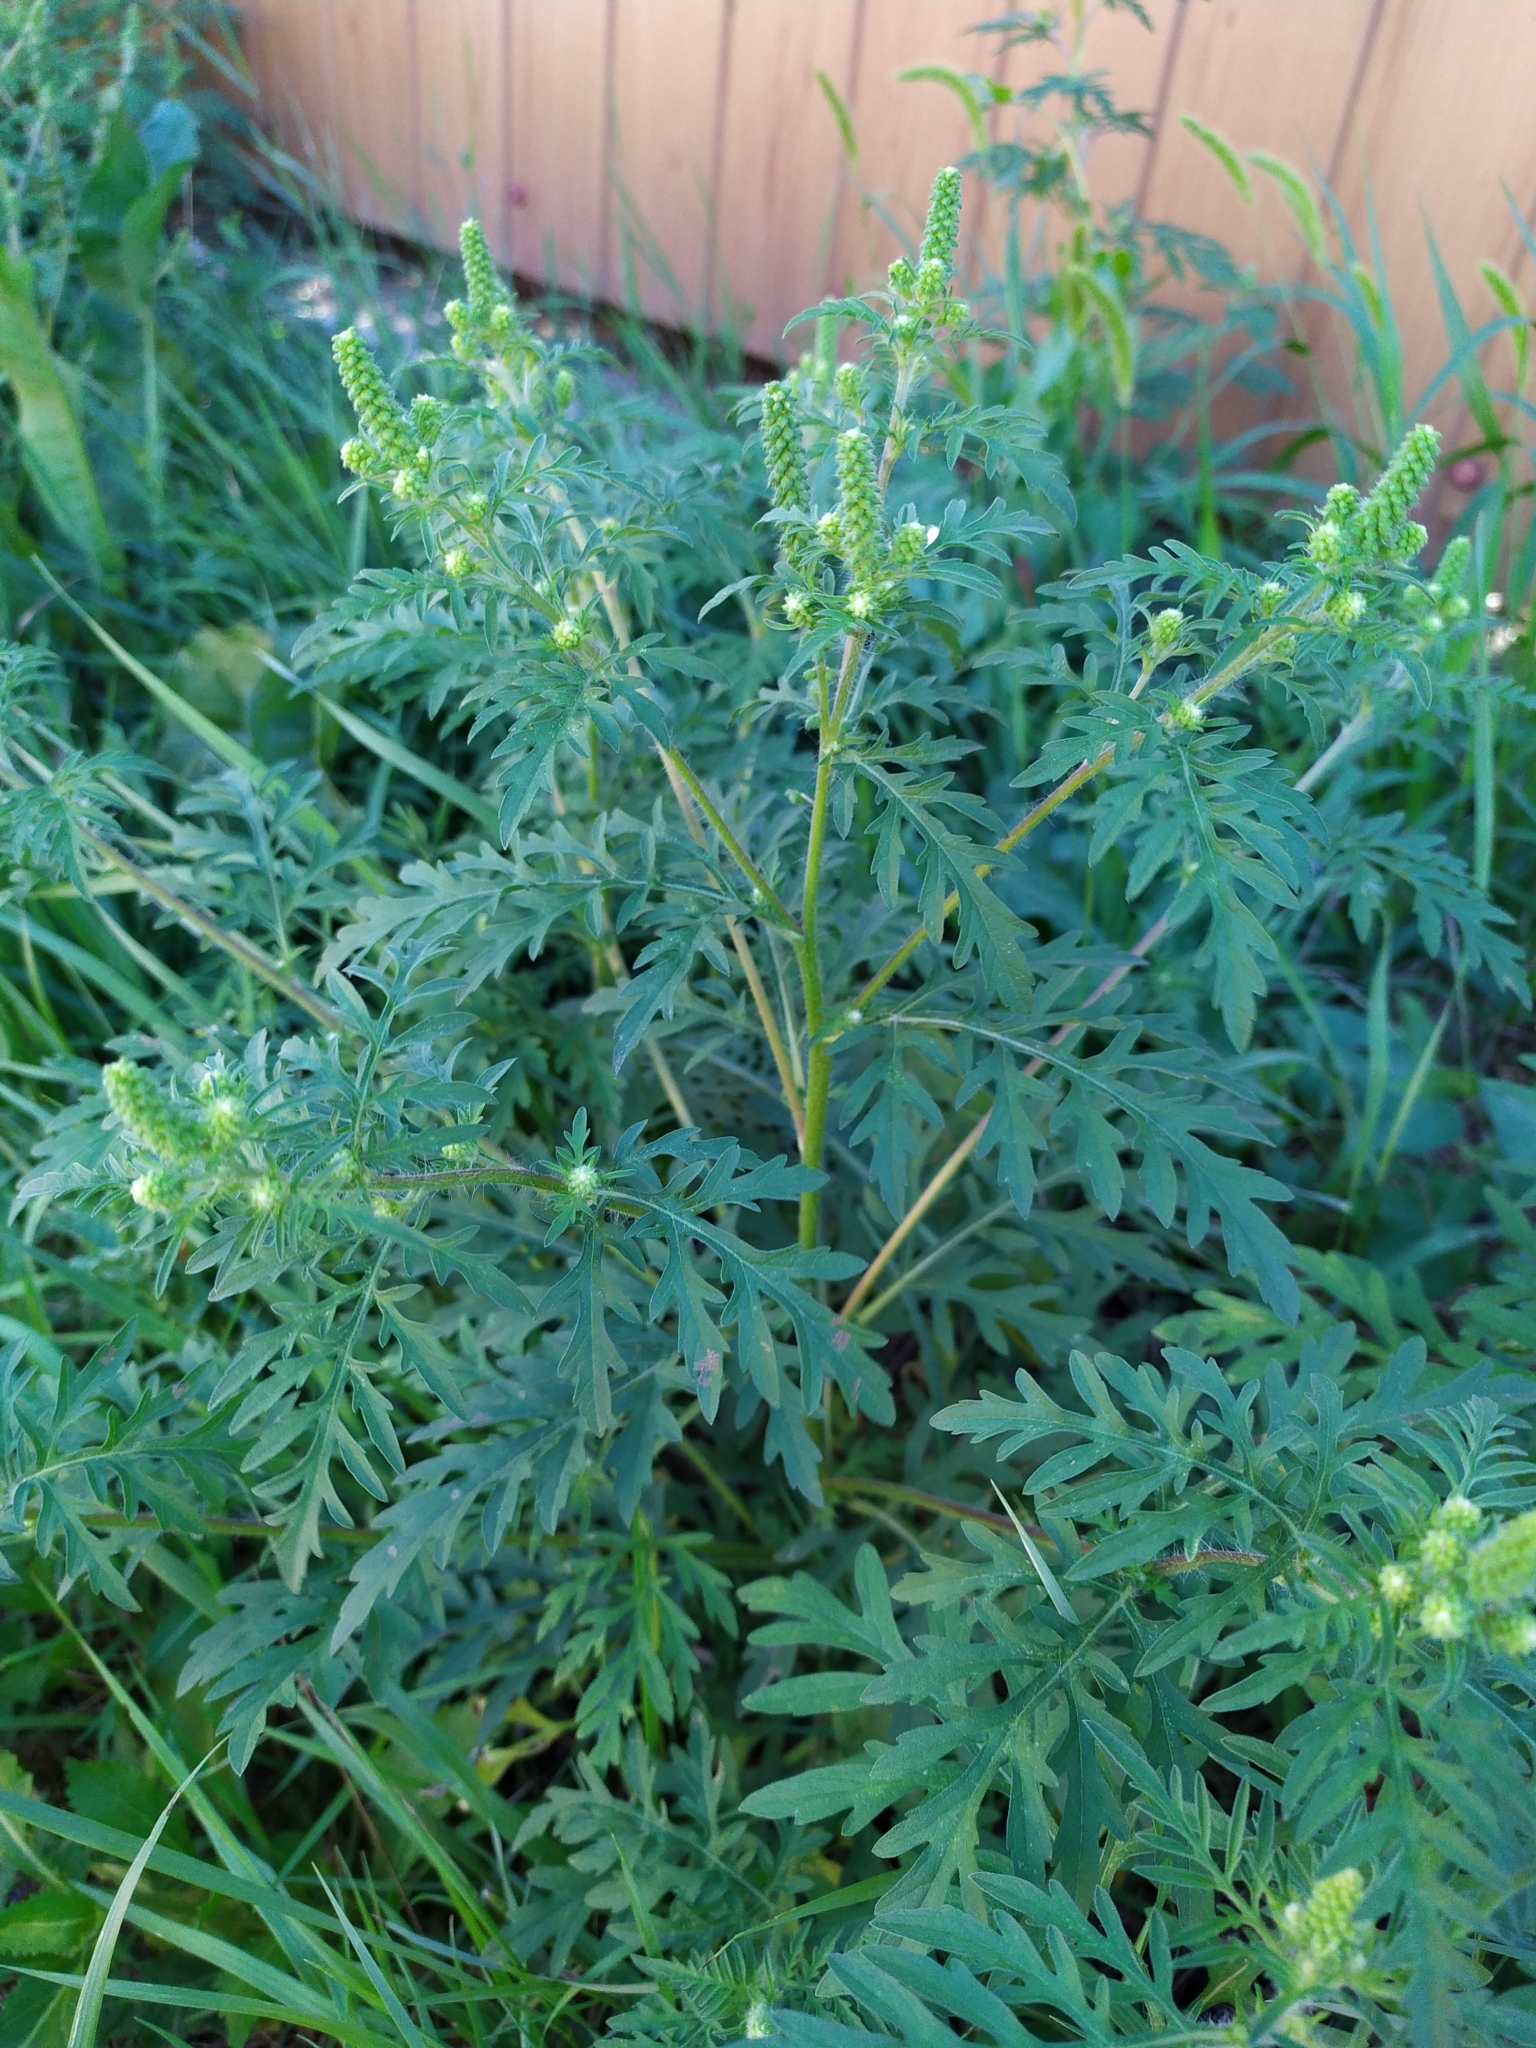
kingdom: Plantae
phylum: Tracheophyta
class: Magnoliopsida
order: Asterales
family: Asteraceae
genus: Ambrosia
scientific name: Ambrosia artemisiifolia
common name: Annual ragweed
